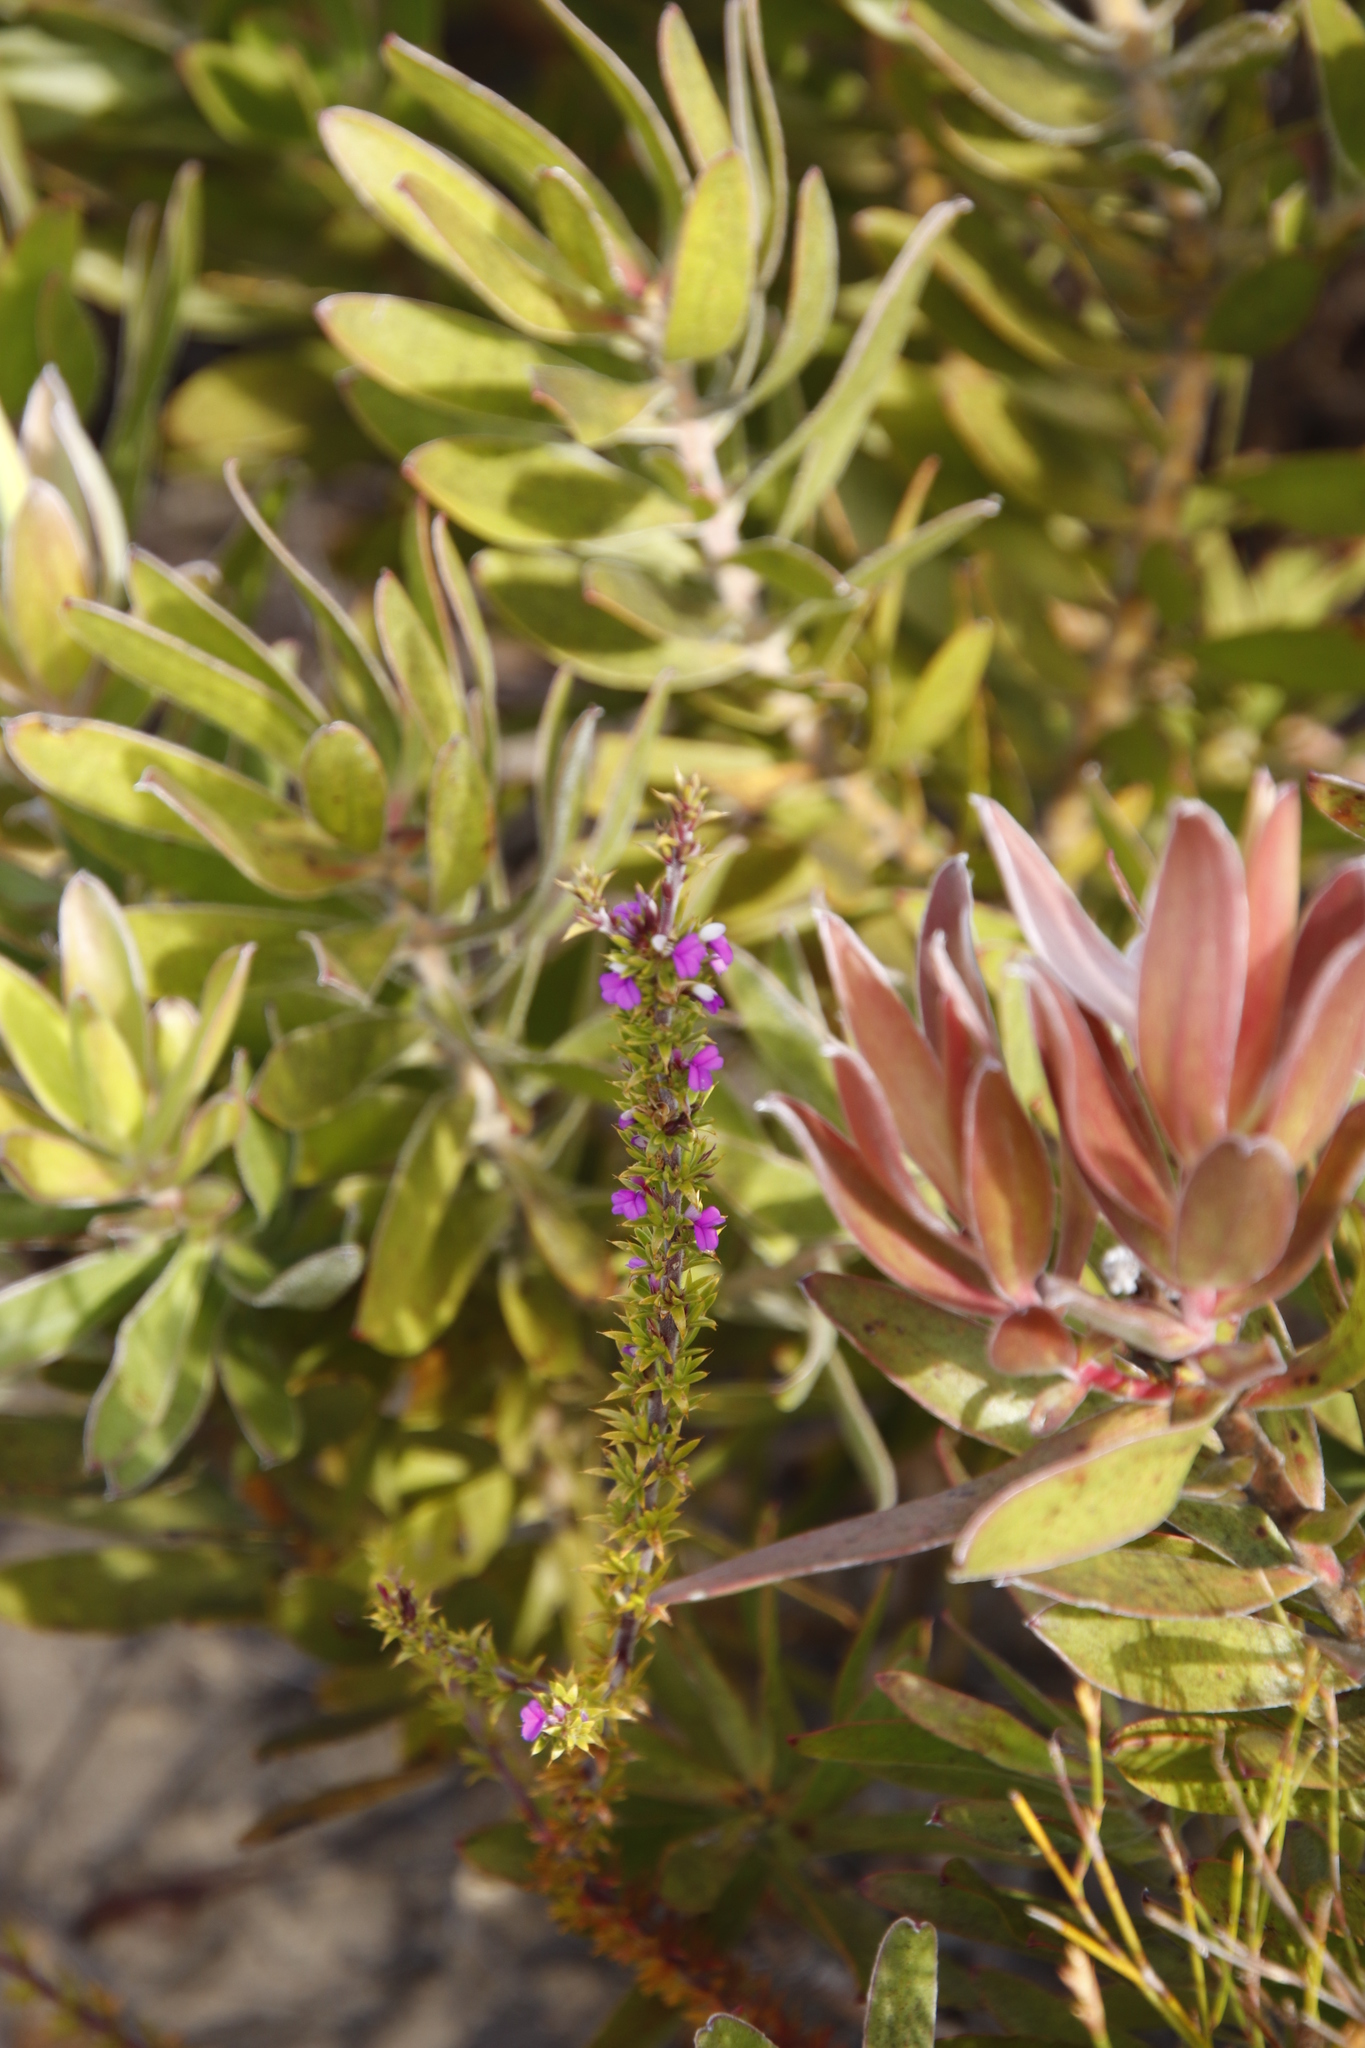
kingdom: Plantae
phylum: Tracheophyta
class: Magnoliopsida
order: Fabales
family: Polygalaceae
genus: Muraltia
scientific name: Muraltia heisteria
